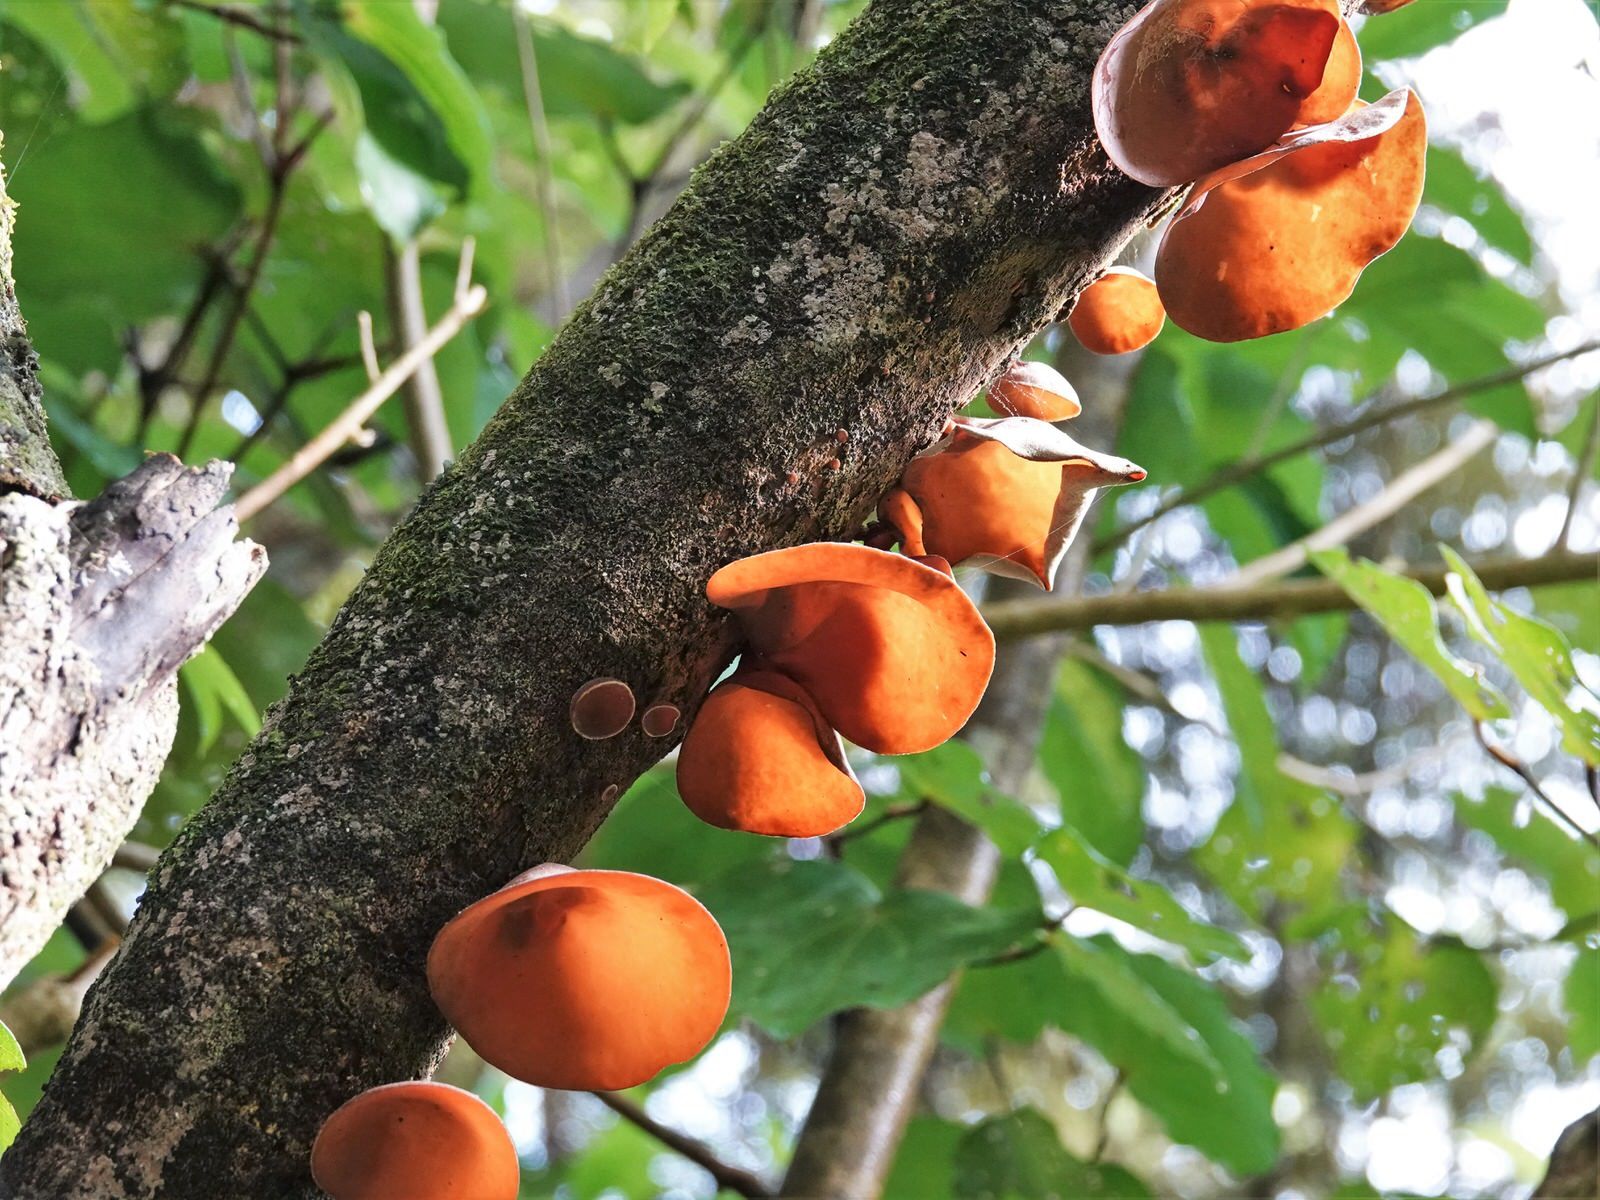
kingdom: Fungi
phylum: Basidiomycota
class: Agaricomycetes
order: Auriculariales
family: Auriculariaceae
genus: Auricularia
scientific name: Auricularia cornea
